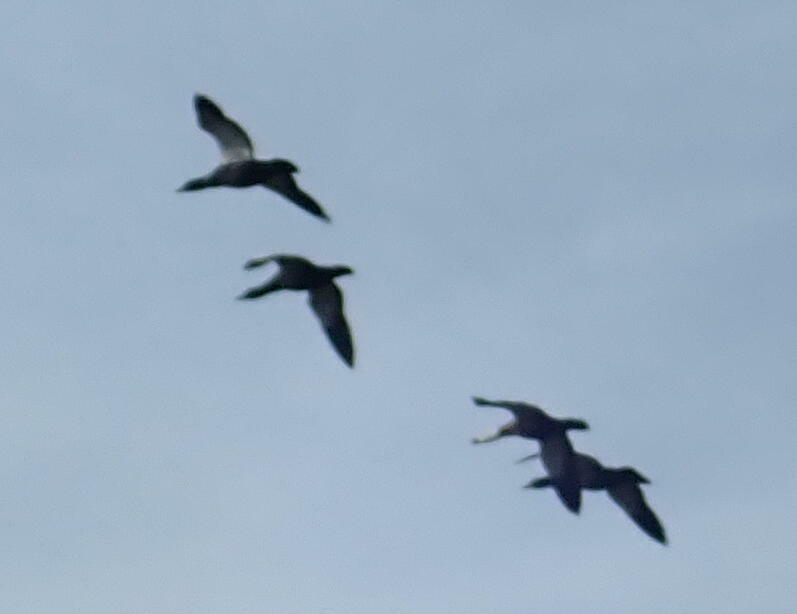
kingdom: Animalia
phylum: Chordata
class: Aves
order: Anseriformes
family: Anatidae
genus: Tadorna
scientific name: Tadorna variegata
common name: Paradise shelduck
